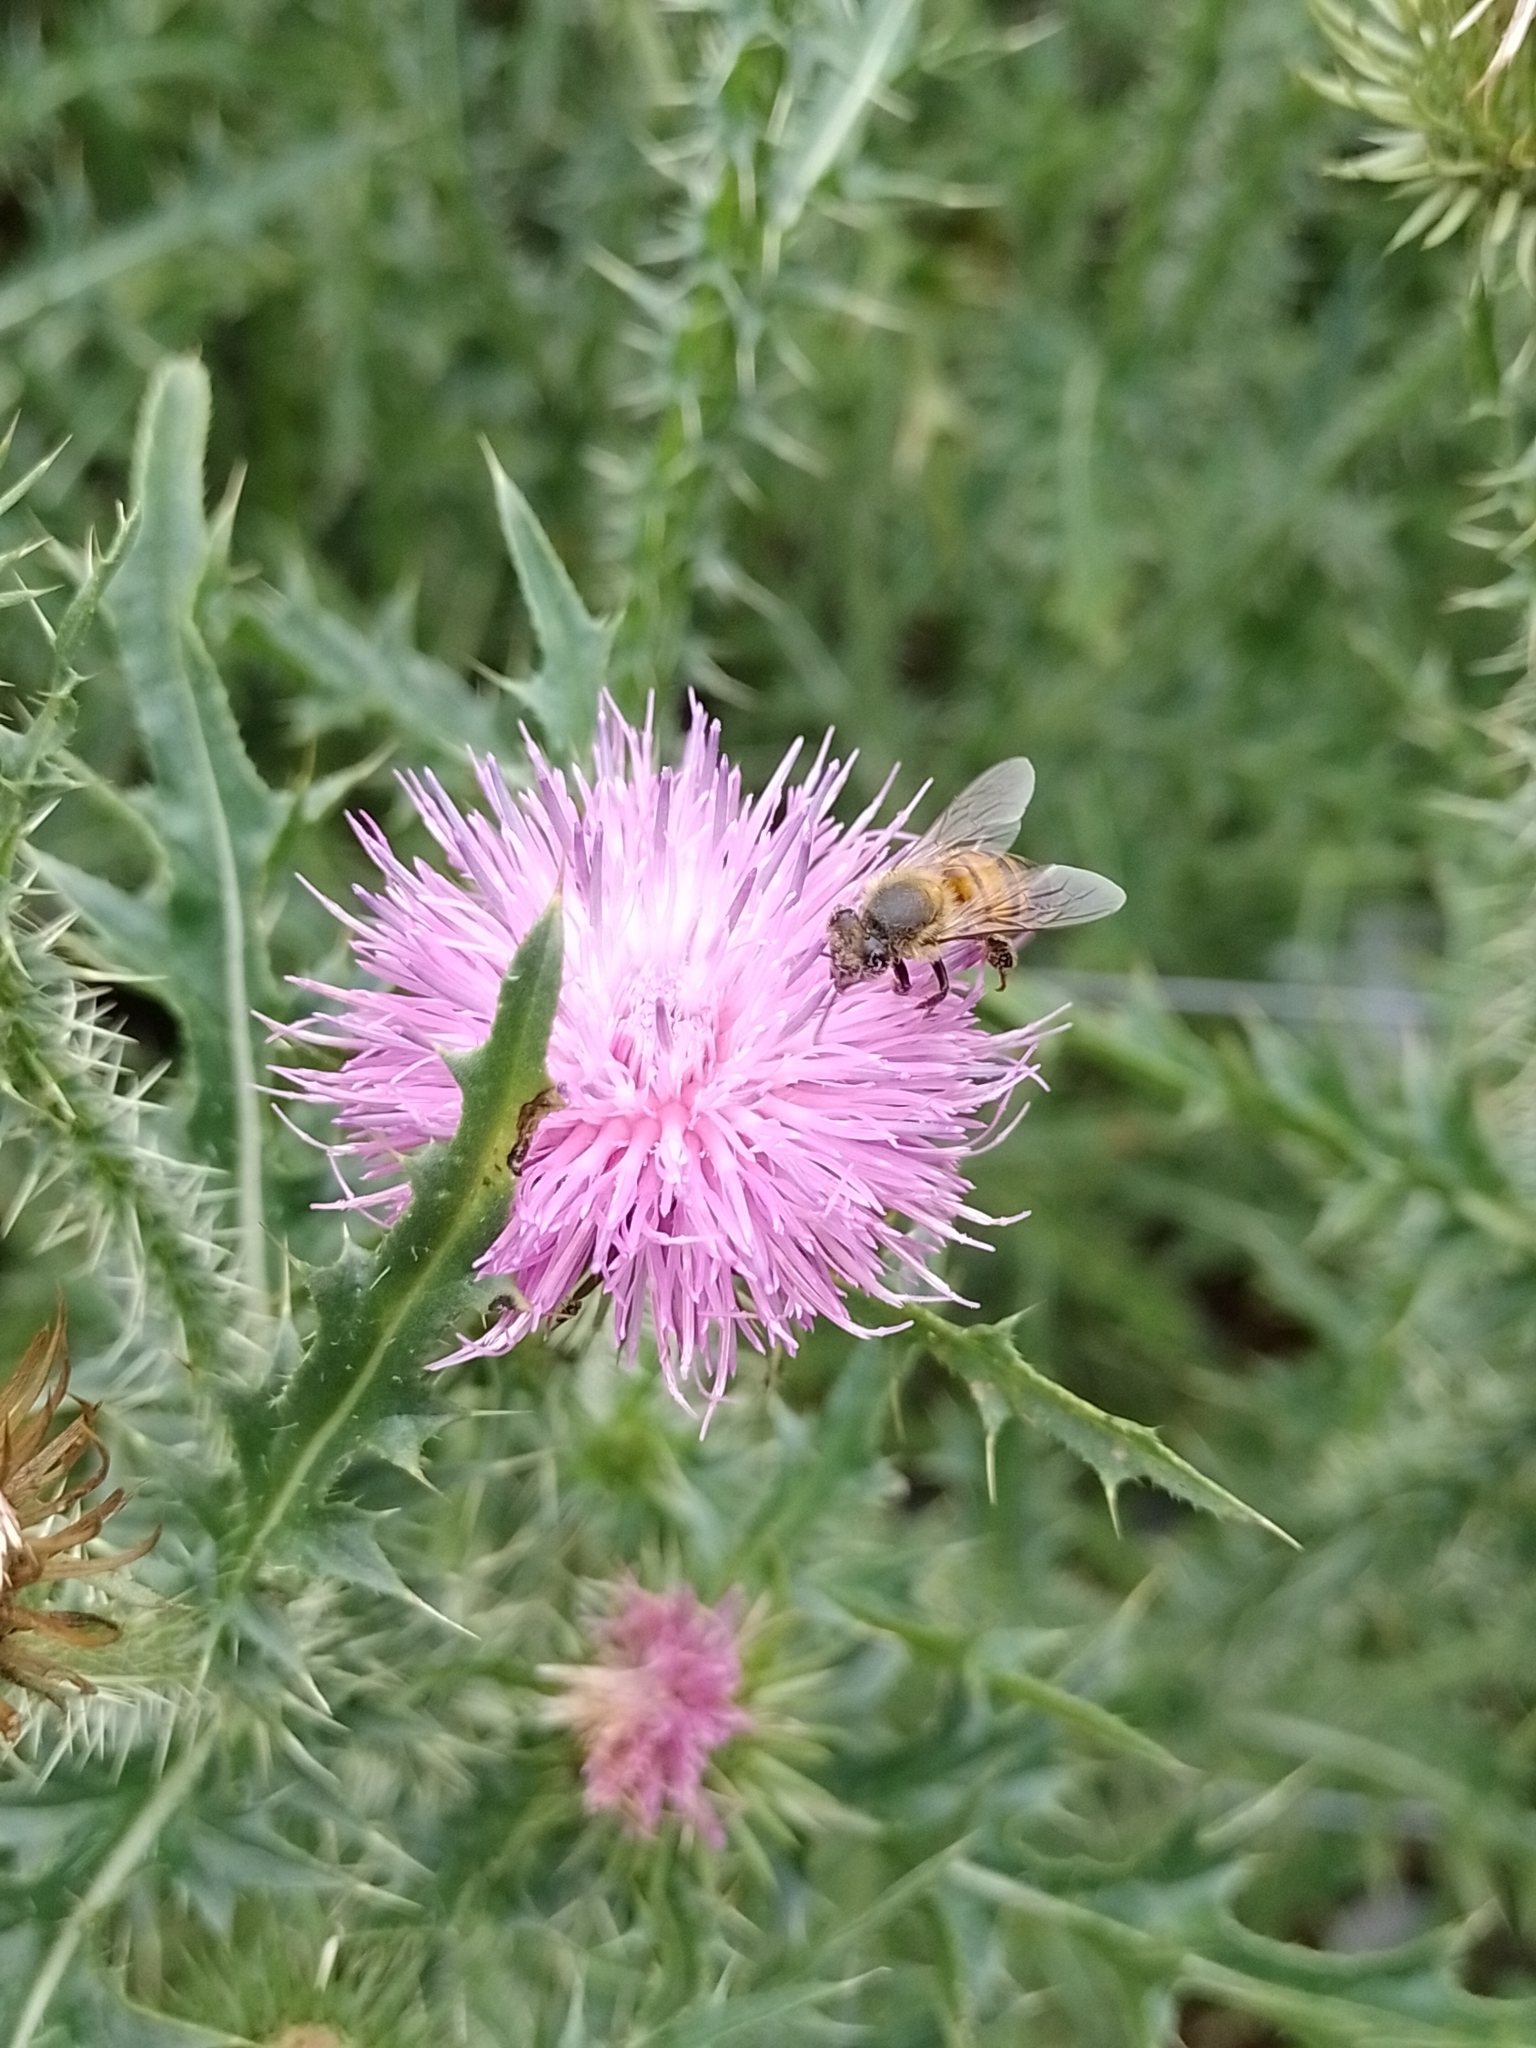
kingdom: Animalia
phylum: Arthropoda
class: Insecta
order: Hymenoptera
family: Apidae
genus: Apis
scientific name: Apis mellifera
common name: Honey bee
